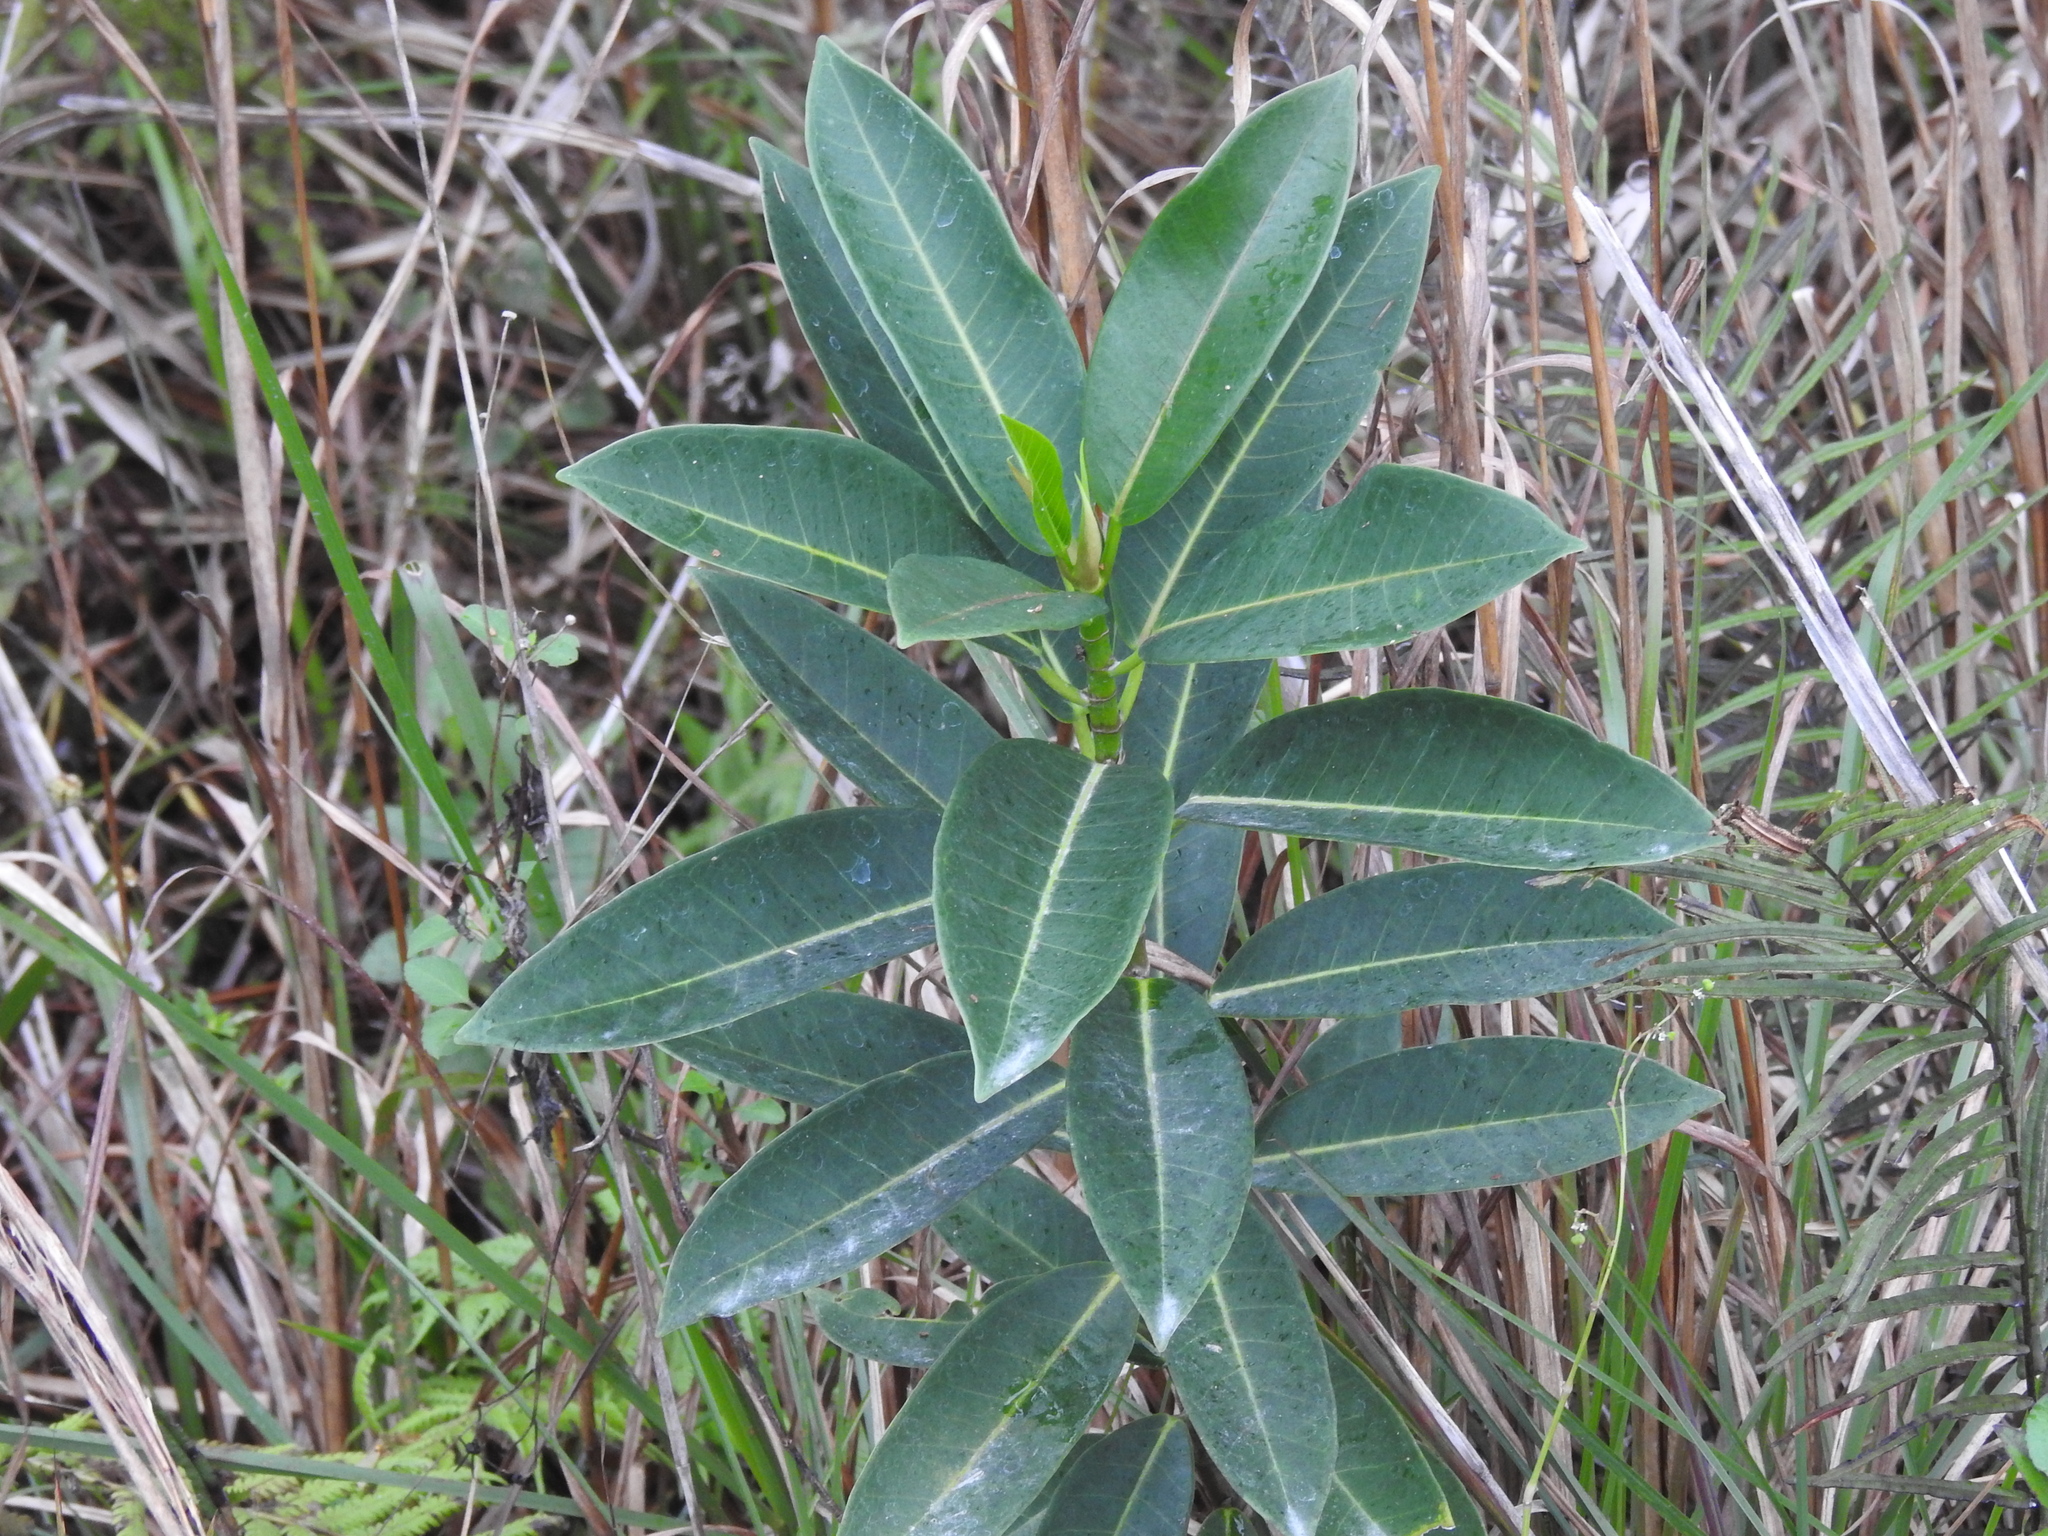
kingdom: Plantae
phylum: Tracheophyta
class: Magnoliopsida
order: Rosales
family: Moraceae
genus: Ficus
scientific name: Ficus aurea
